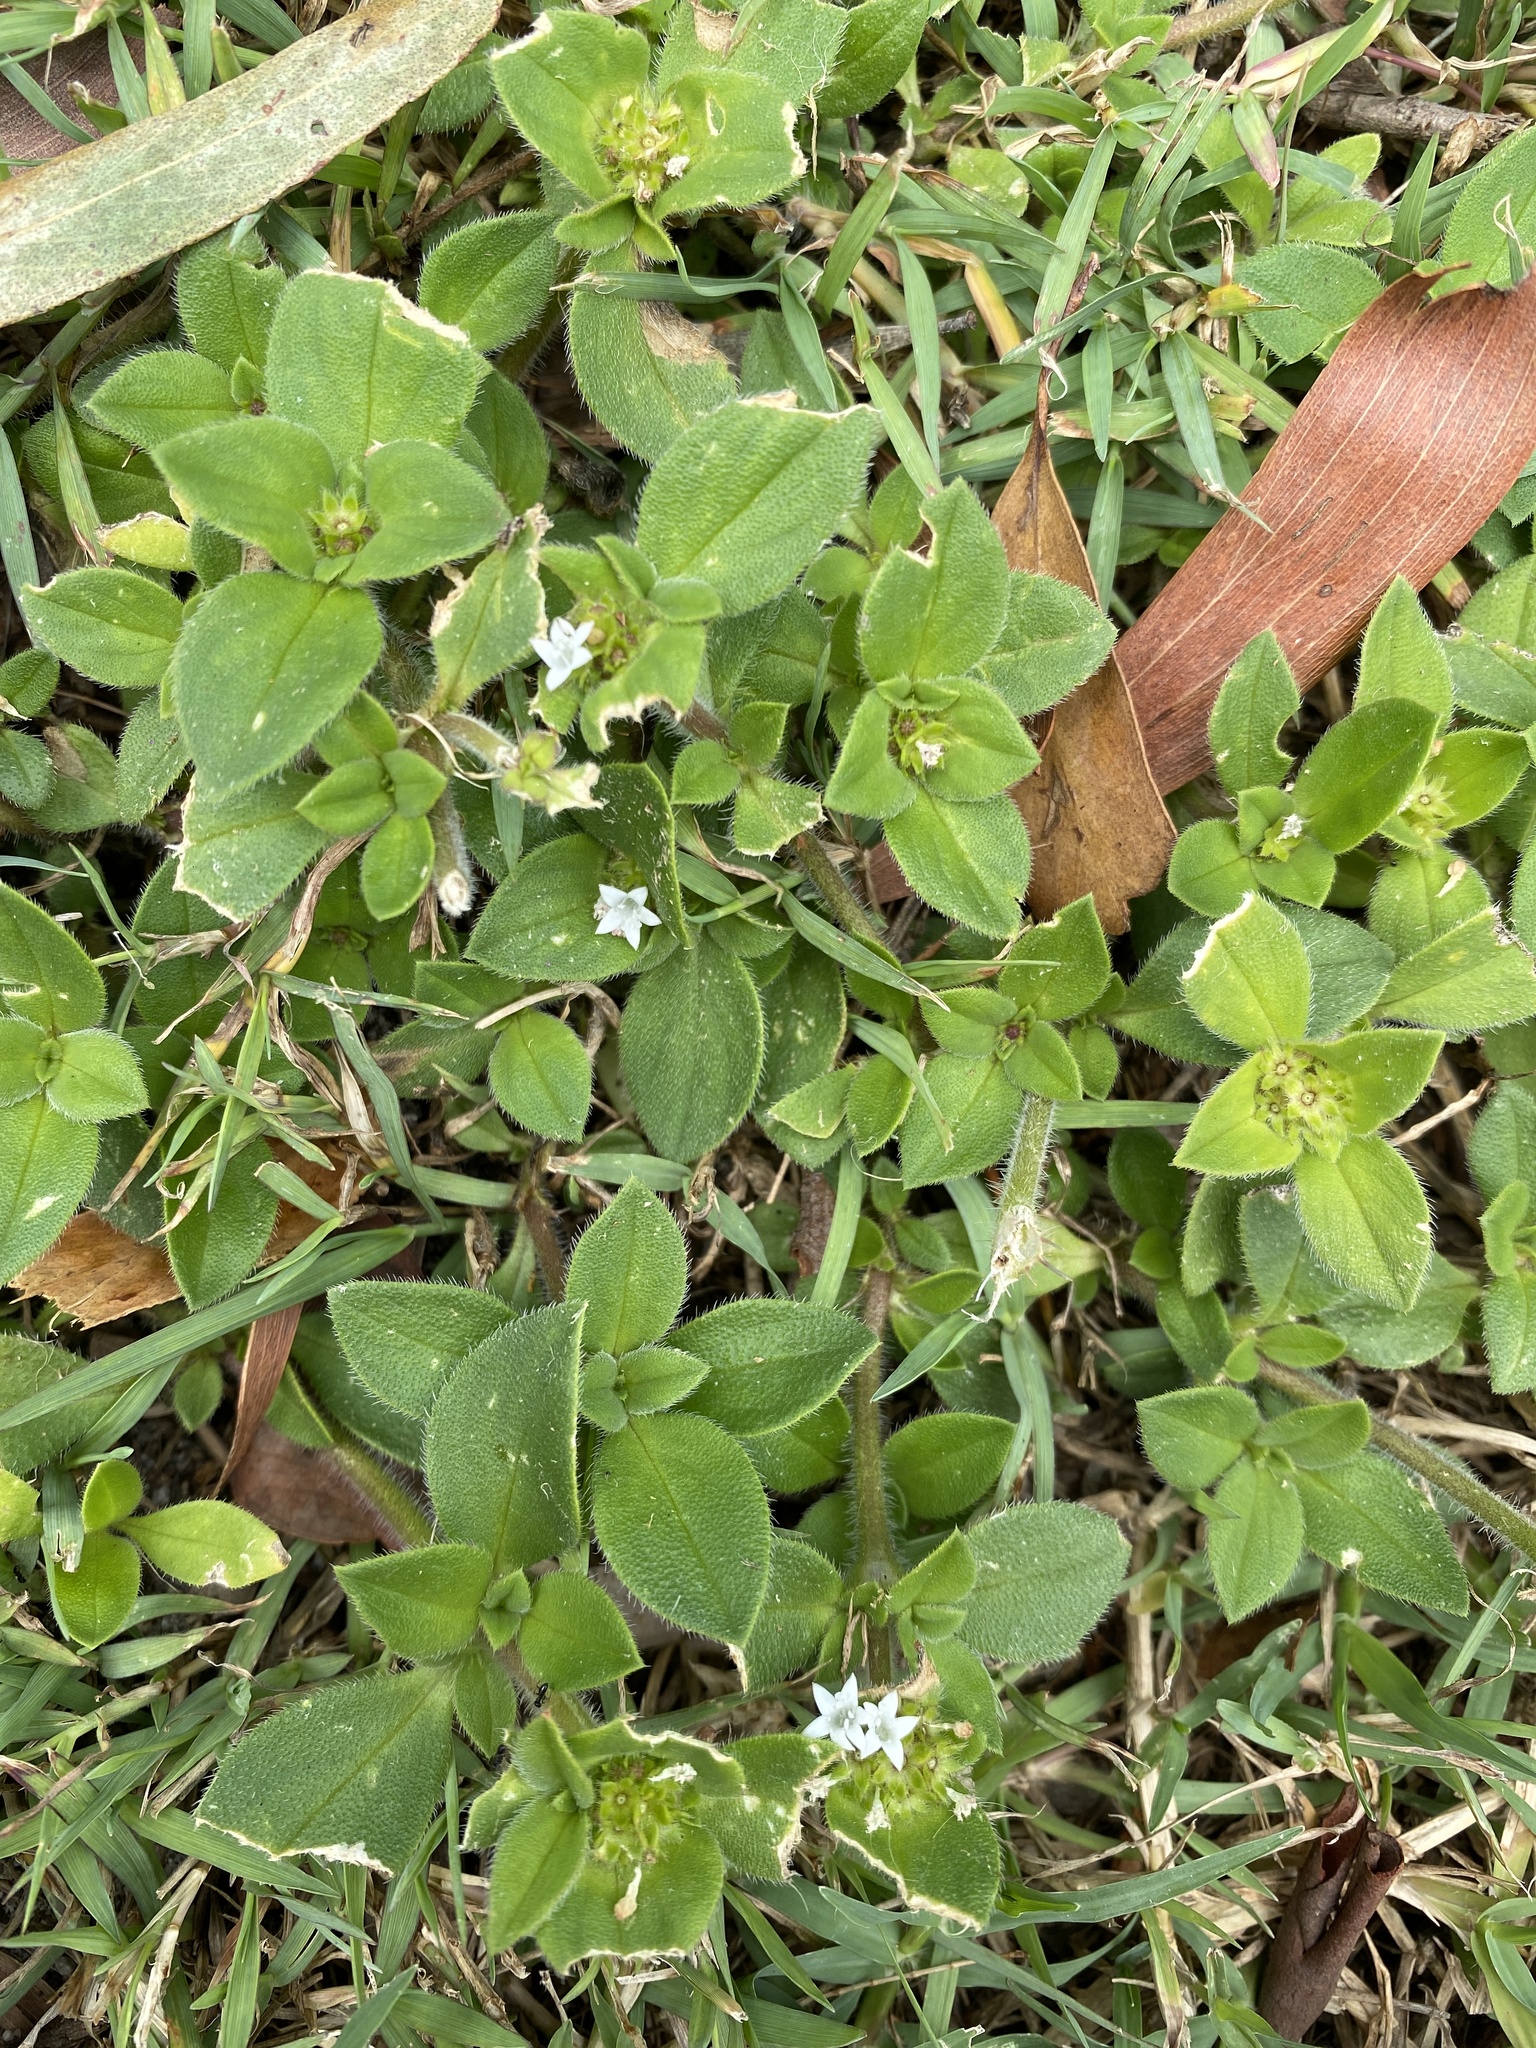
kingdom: Plantae
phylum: Tracheophyta
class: Magnoliopsida
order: Gentianales
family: Rubiaceae
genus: Richardia
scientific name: Richardia brasiliensis
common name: Tropical mexican clover
